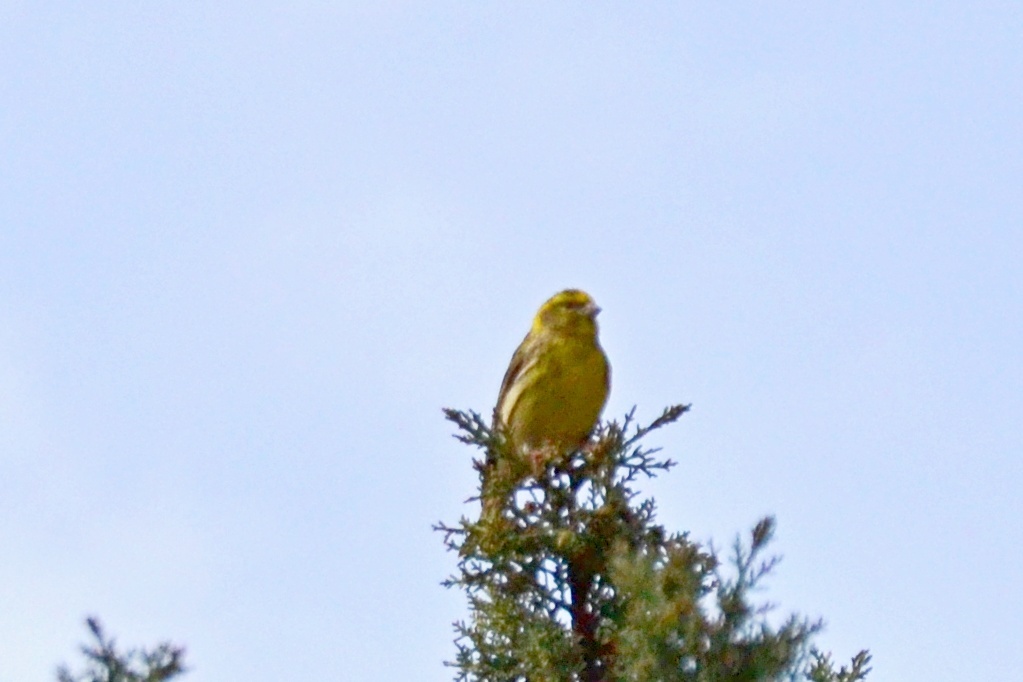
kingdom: Animalia
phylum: Chordata
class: Aves
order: Passeriformes
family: Fringillidae
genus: Serinus
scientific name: Serinus serinus
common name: European serin
